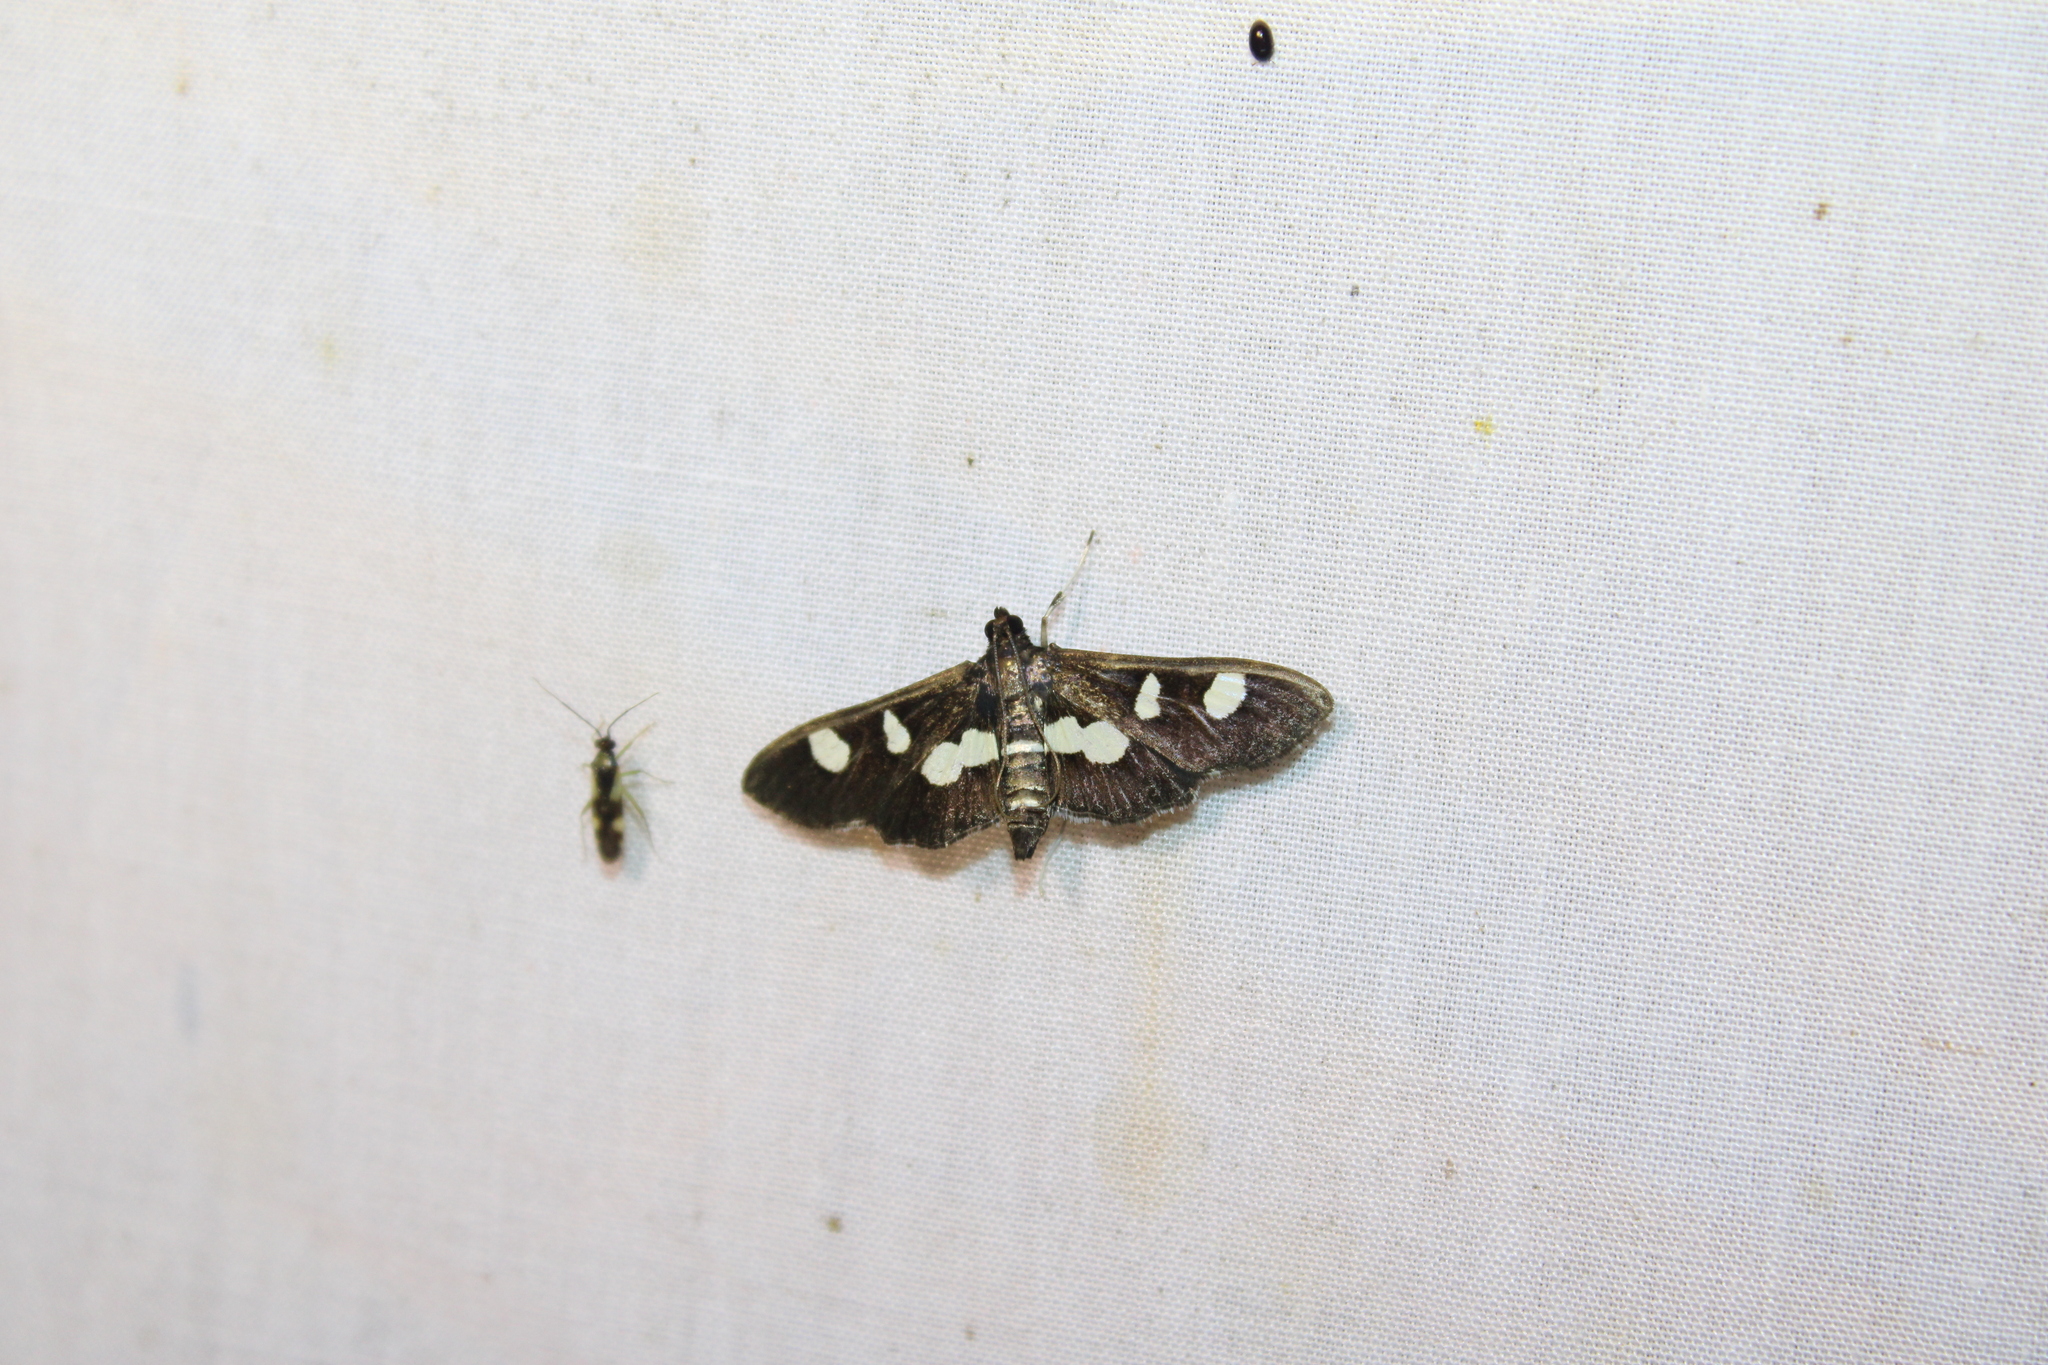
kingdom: Animalia
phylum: Arthropoda
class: Insecta
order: Lepidoptera
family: Crambidae
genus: Desmia
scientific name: Desmia
